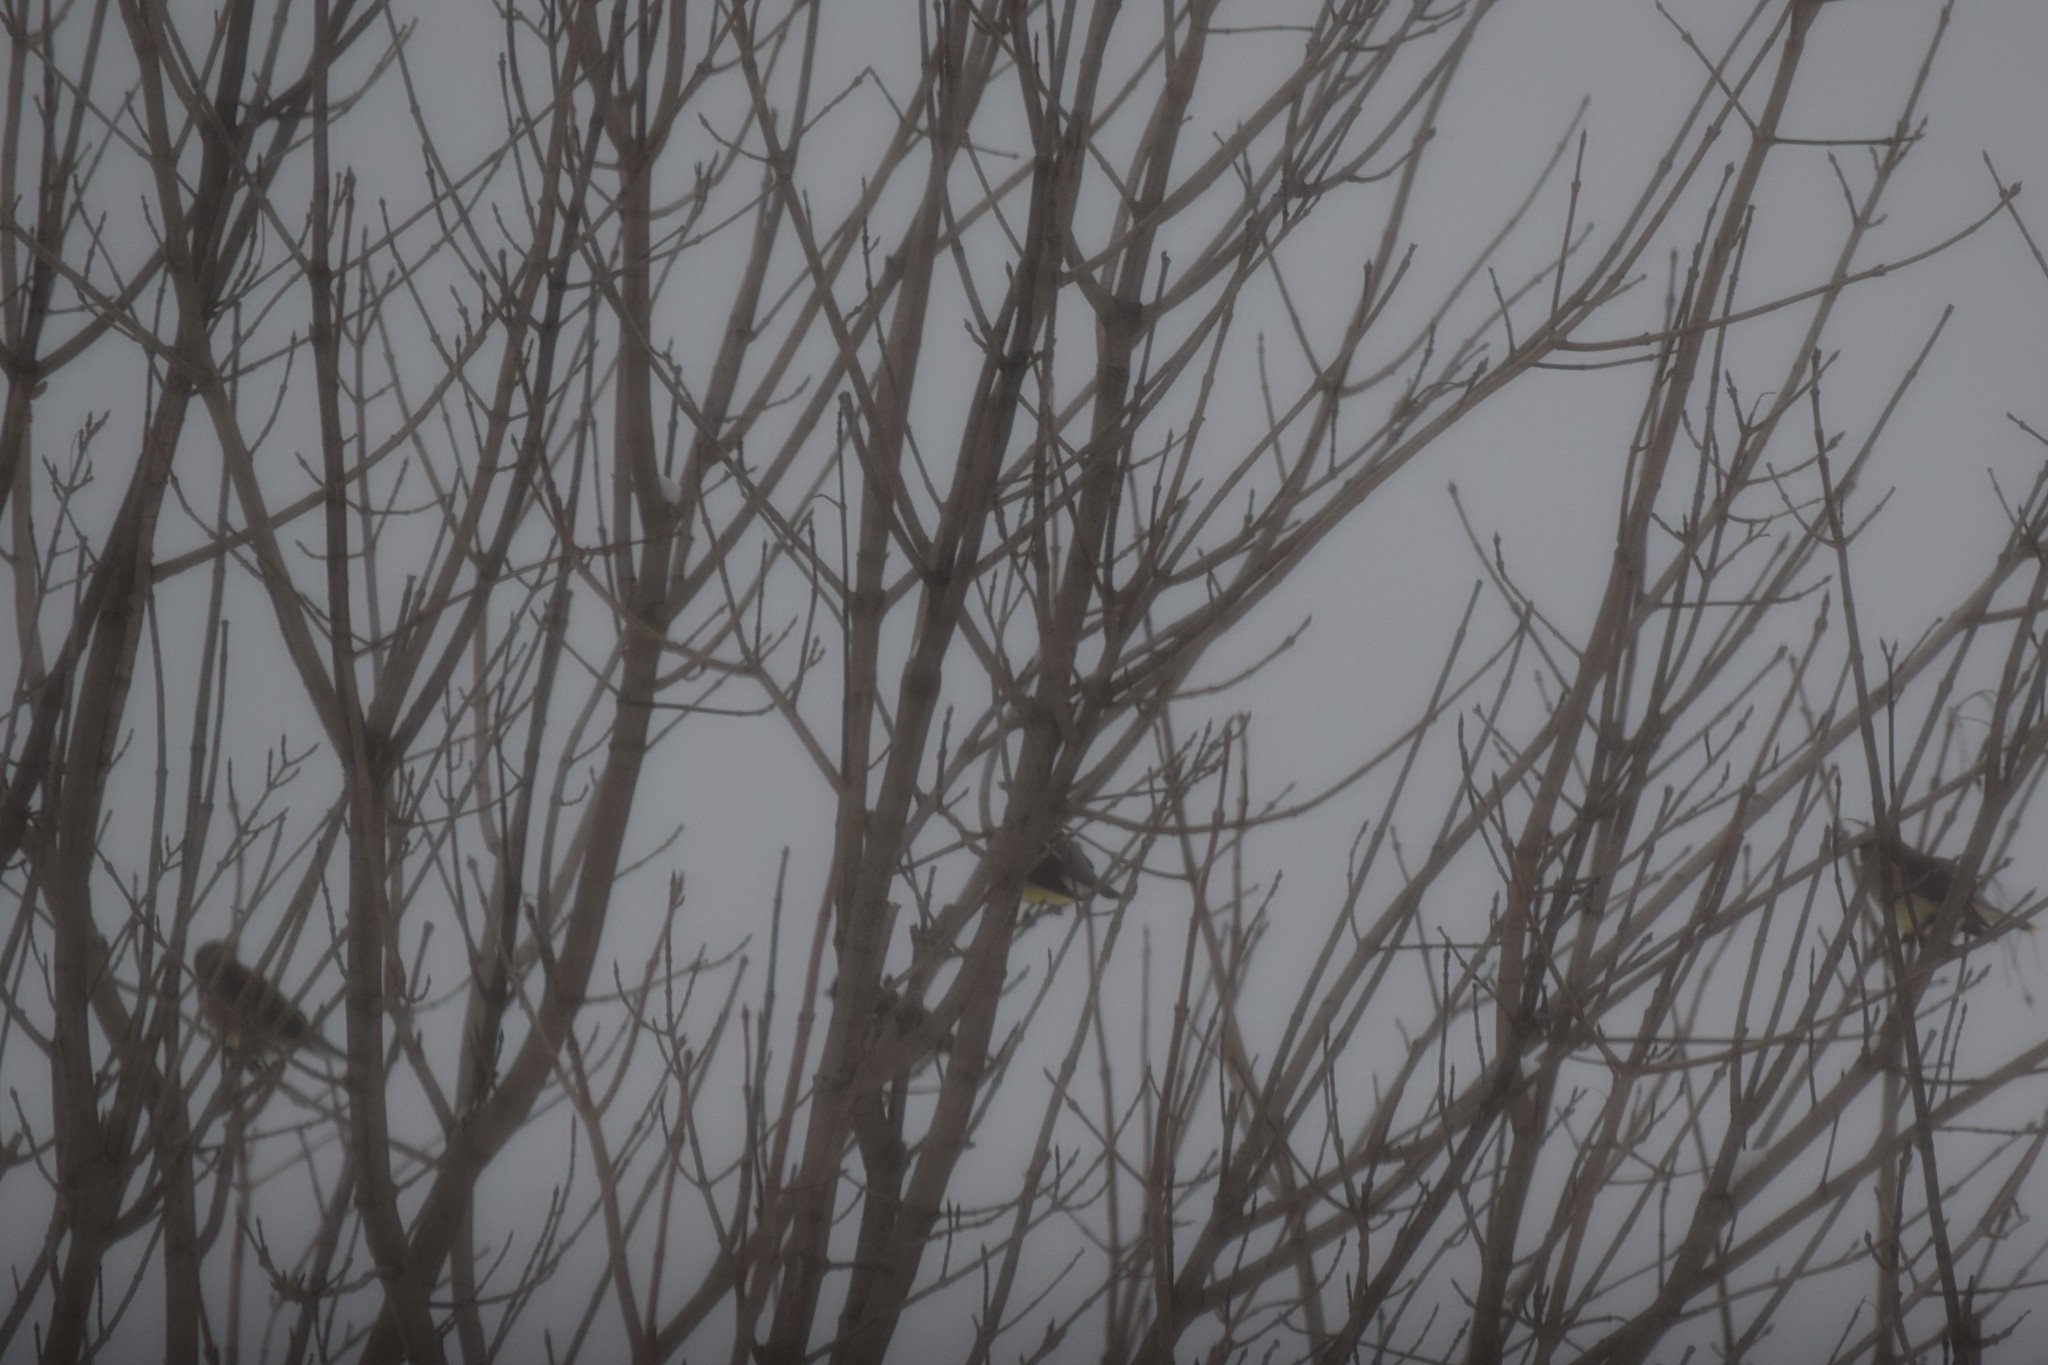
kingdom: Animalia
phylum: Chordata
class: Aves
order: Passeriformes
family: Bombycillidae
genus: Bombycilla
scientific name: Bombycilla cedrorum
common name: Cedar waxwing
